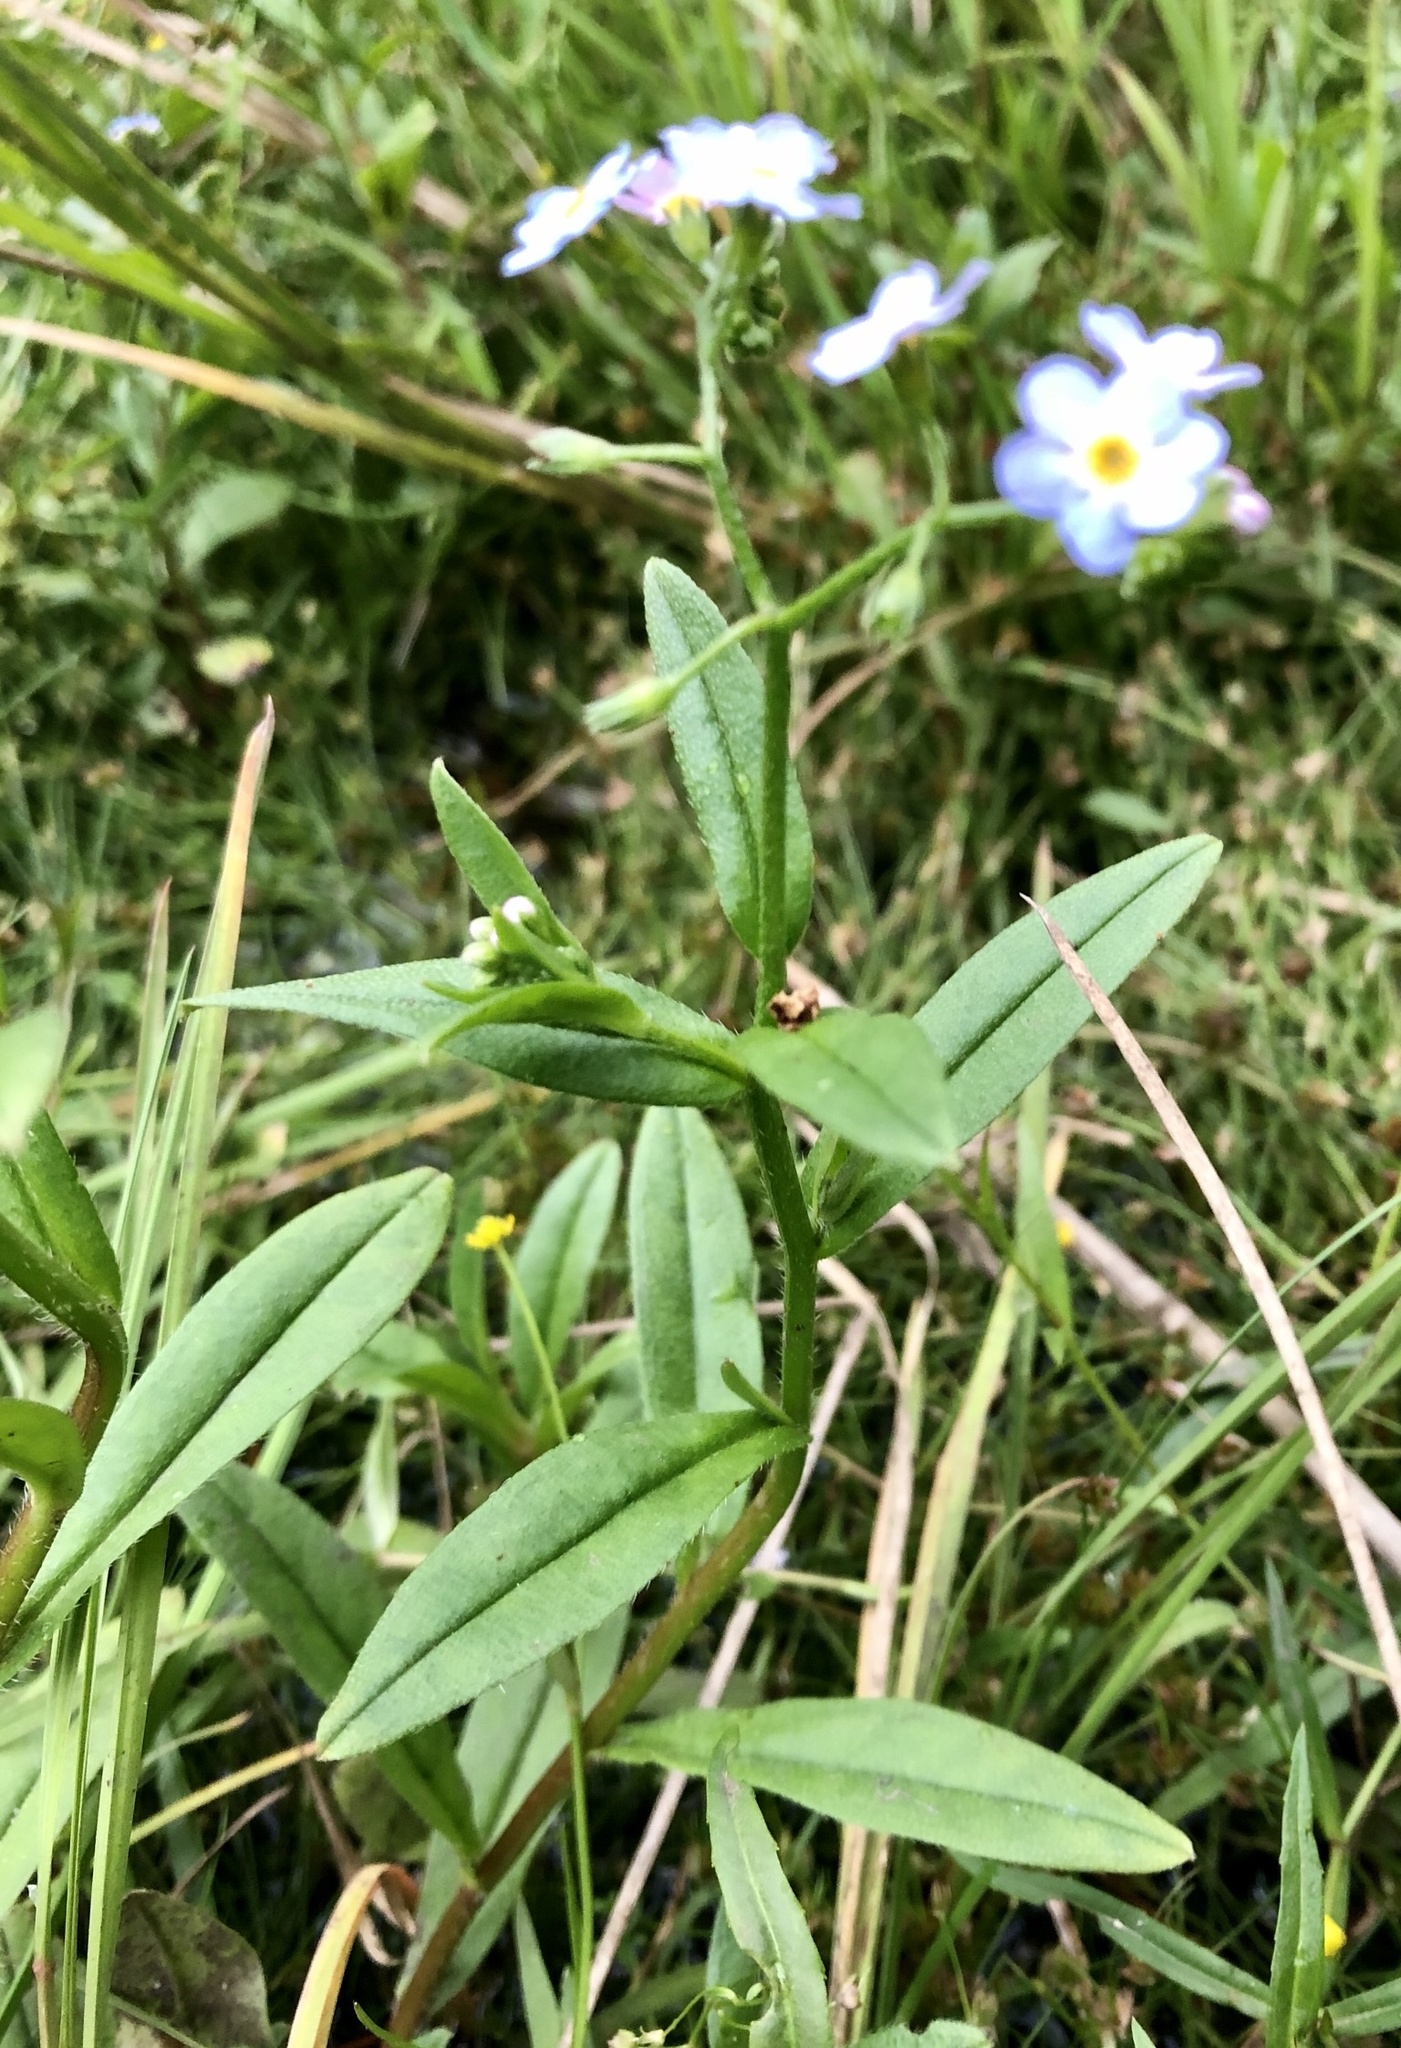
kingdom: Plantae
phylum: Tracheophyta
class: Magnoliopsida
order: Boraginales
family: Boraginaceae
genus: Myosotis
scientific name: Myosotis scorpioides
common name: Water forget-me-not
